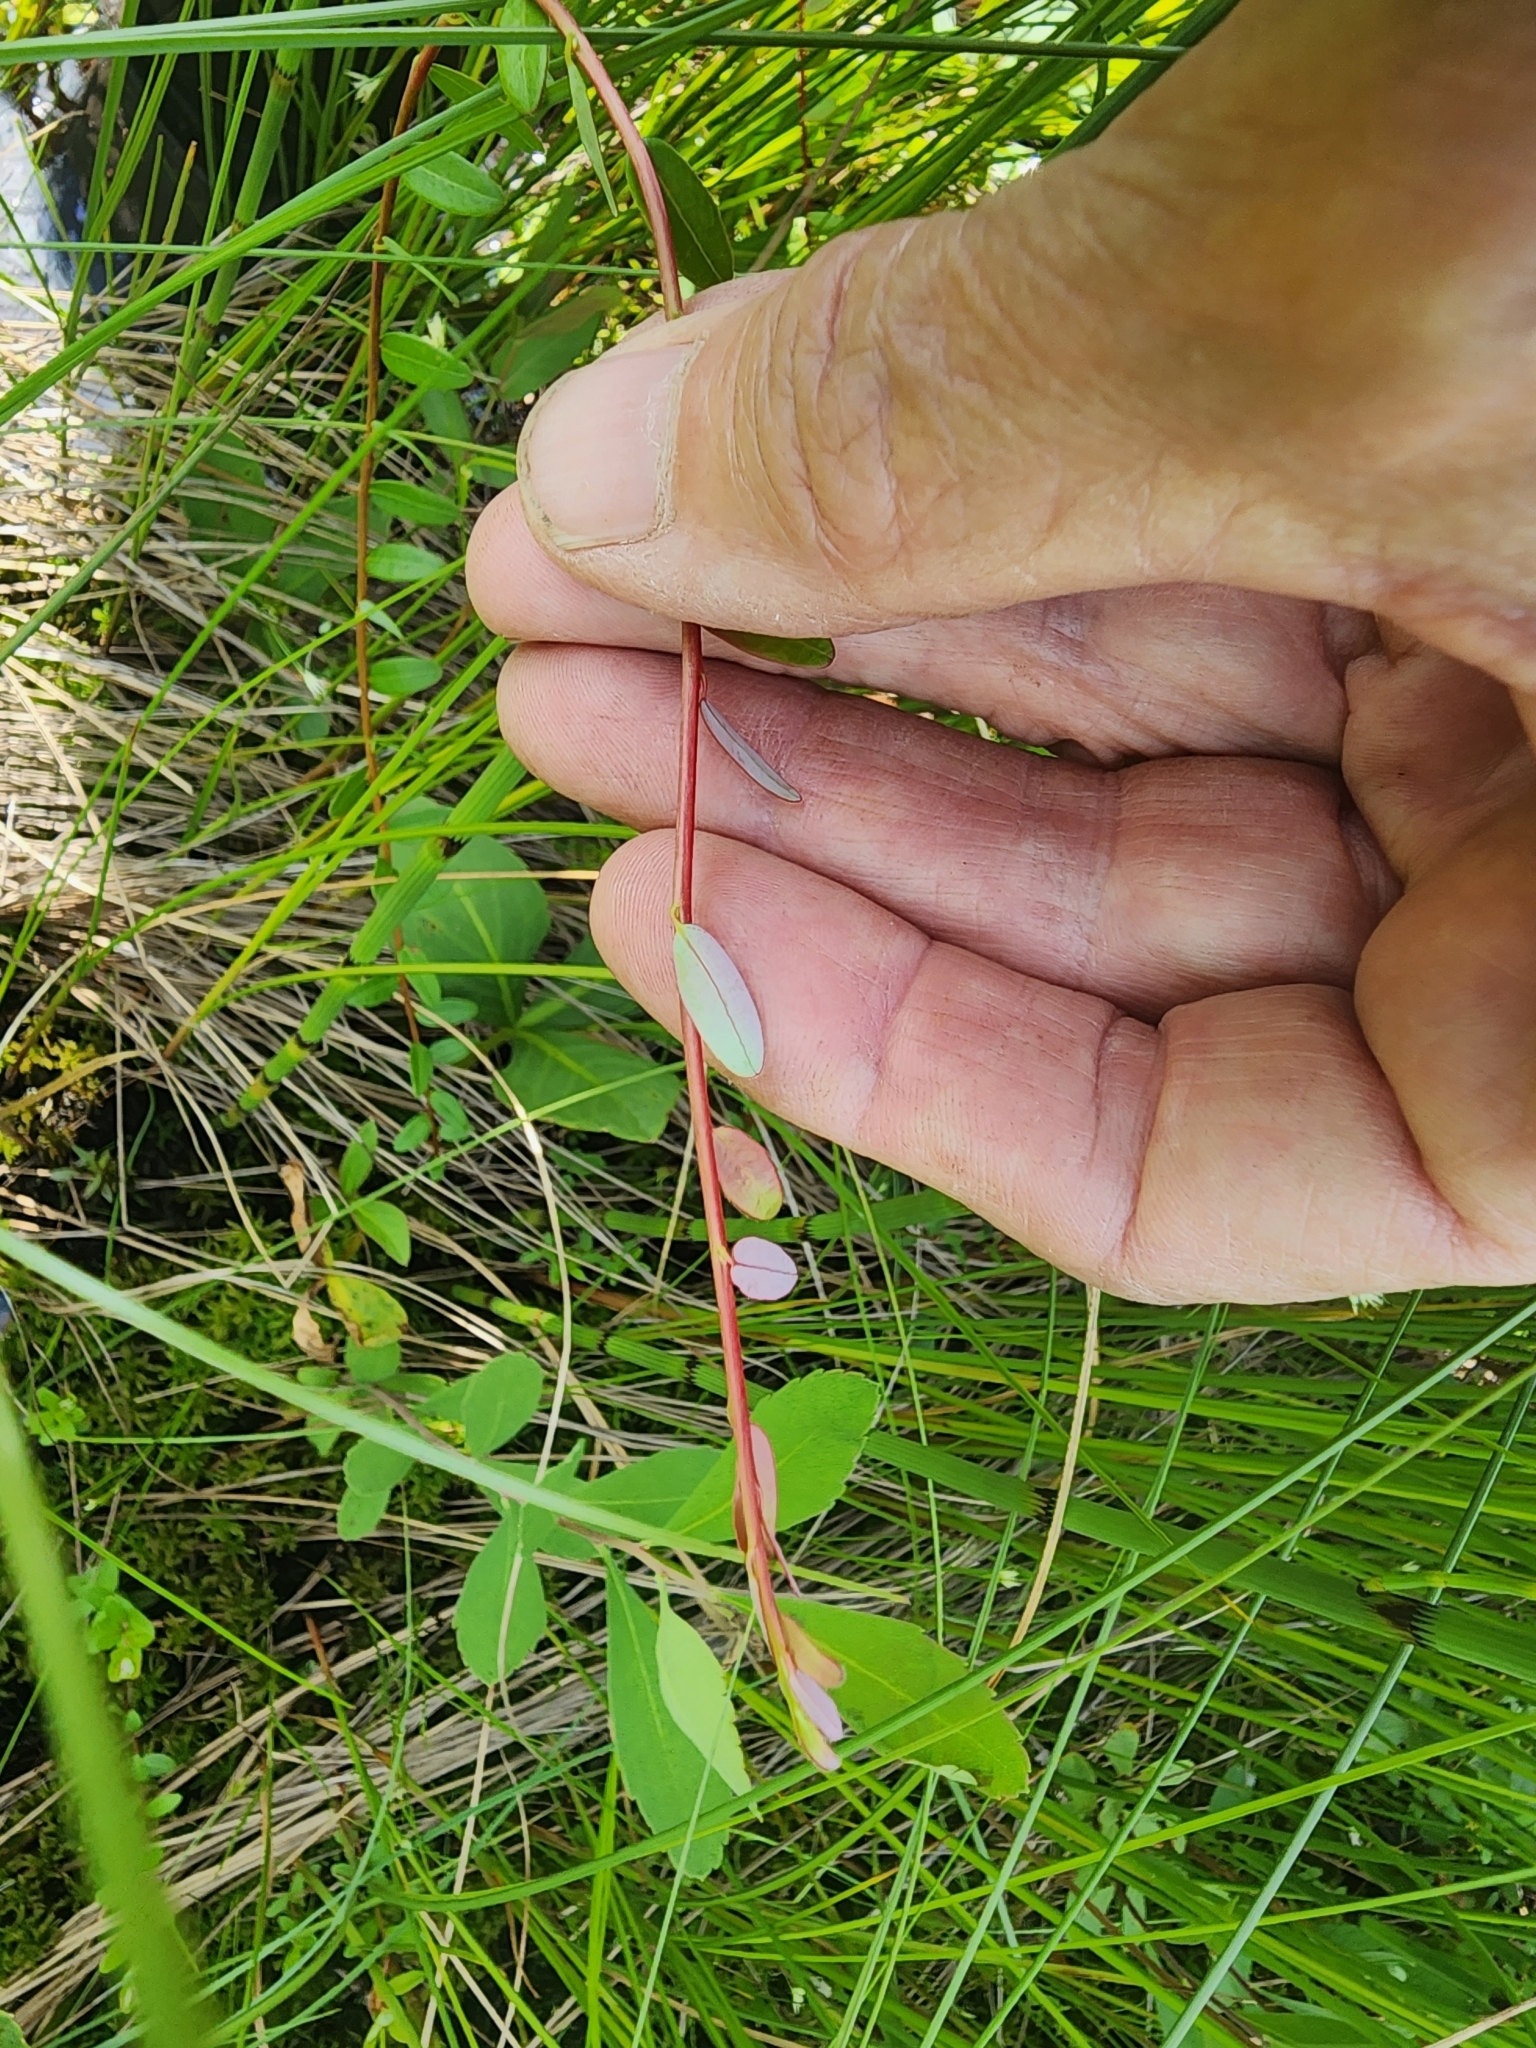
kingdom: Plantae
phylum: Tracheophyta
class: Magnoliopsida
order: Ericales
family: Ericaceae
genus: Vaccinium
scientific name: Vaccinium macrocarpon
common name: American cranberry
